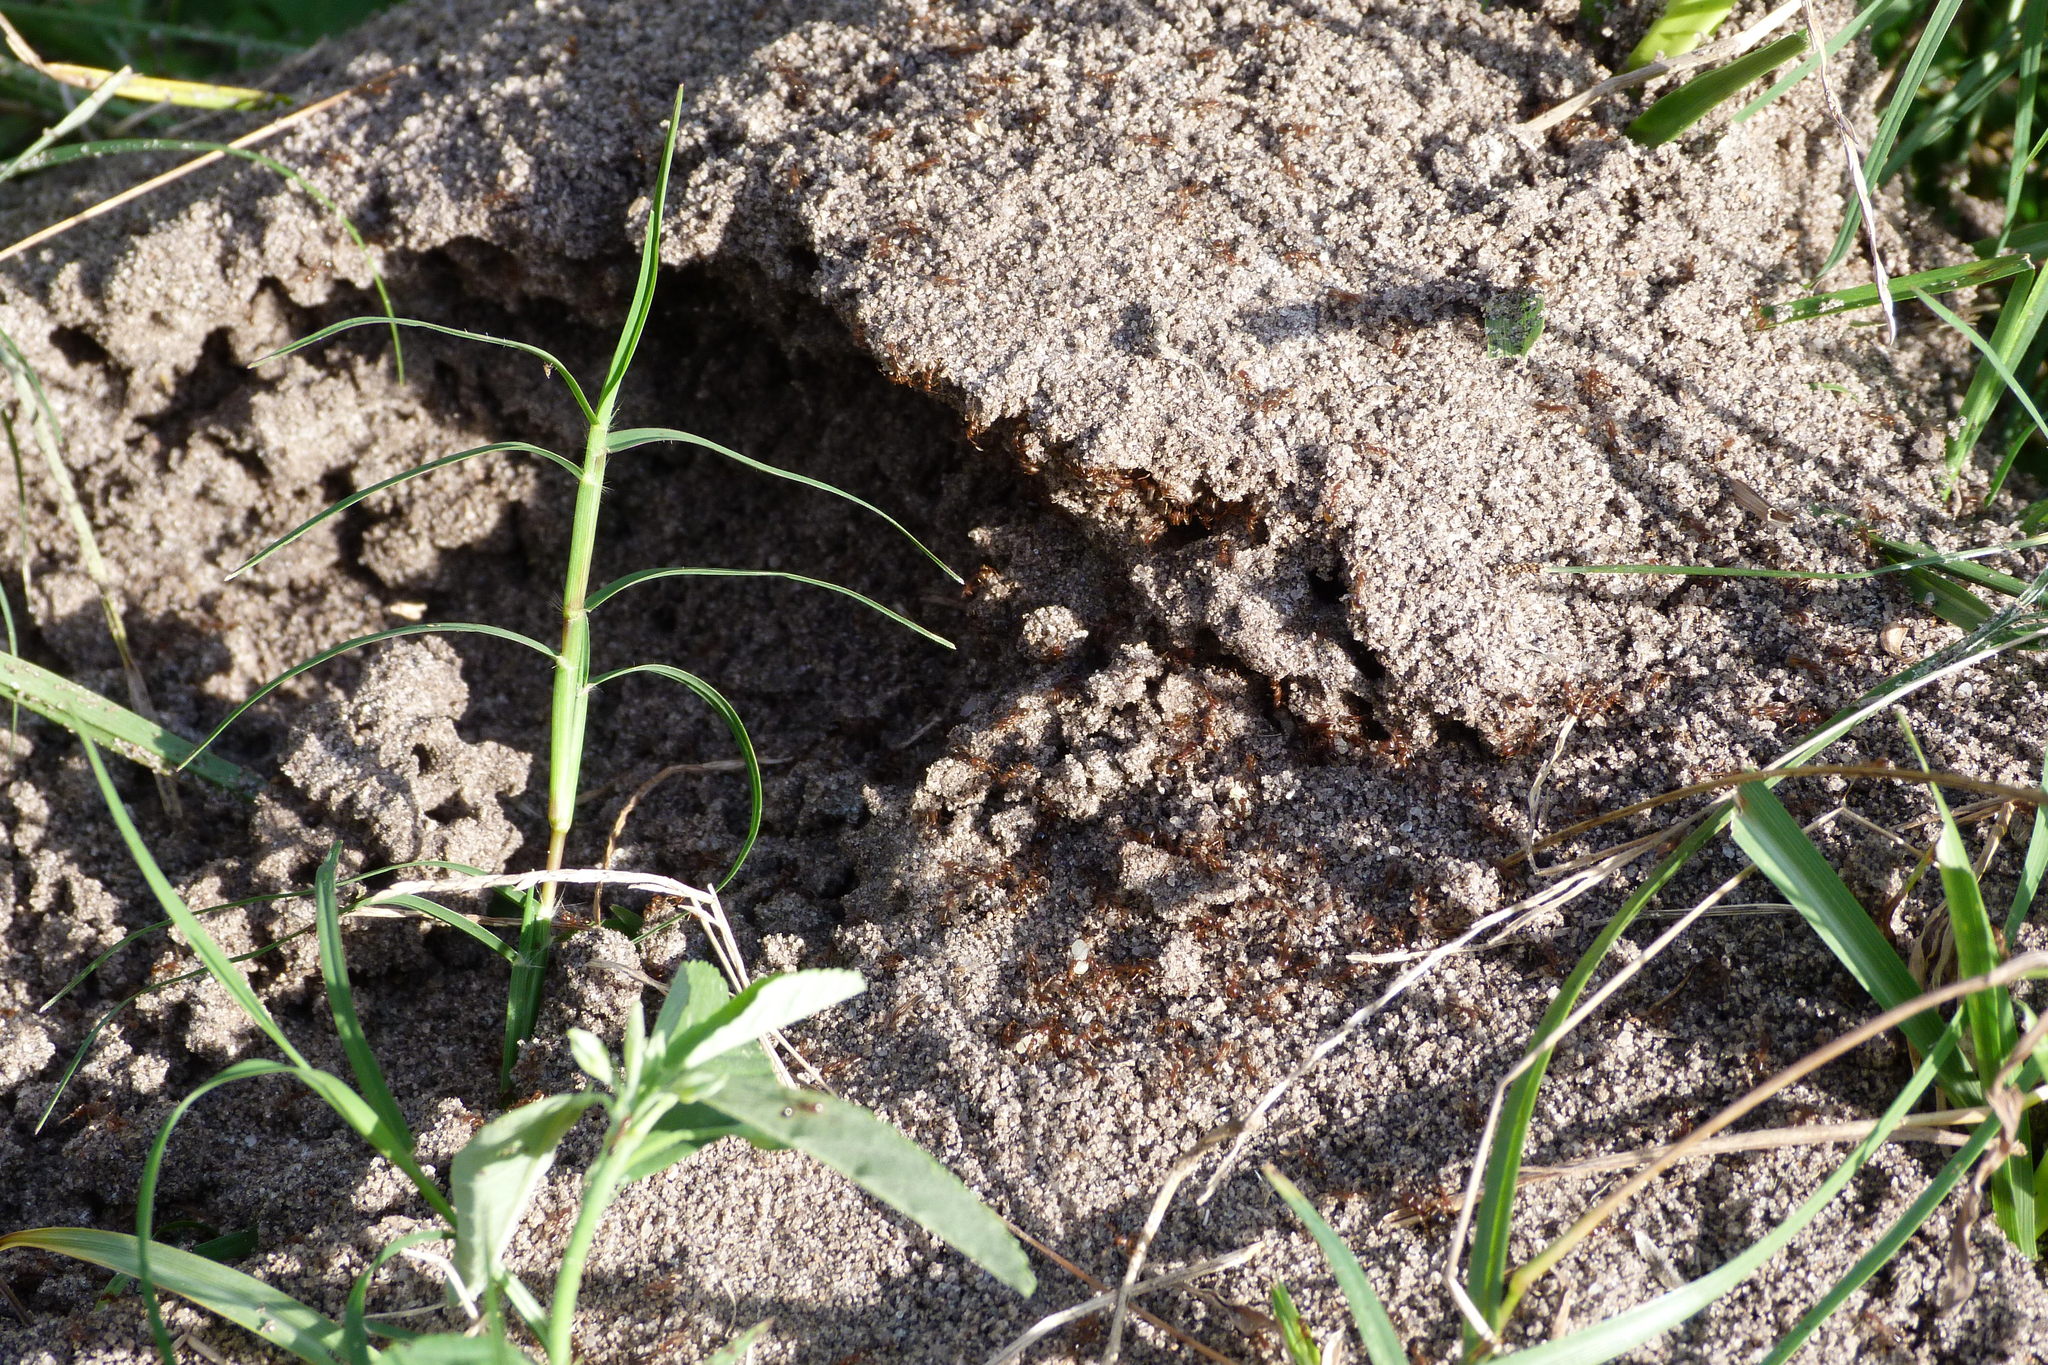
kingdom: Animalia
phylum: Arthropoda
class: Insecta
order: Hymenoptera
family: Formicidae
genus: Solenopsis
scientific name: Solenopsis invicta
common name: Red imported fire ant
